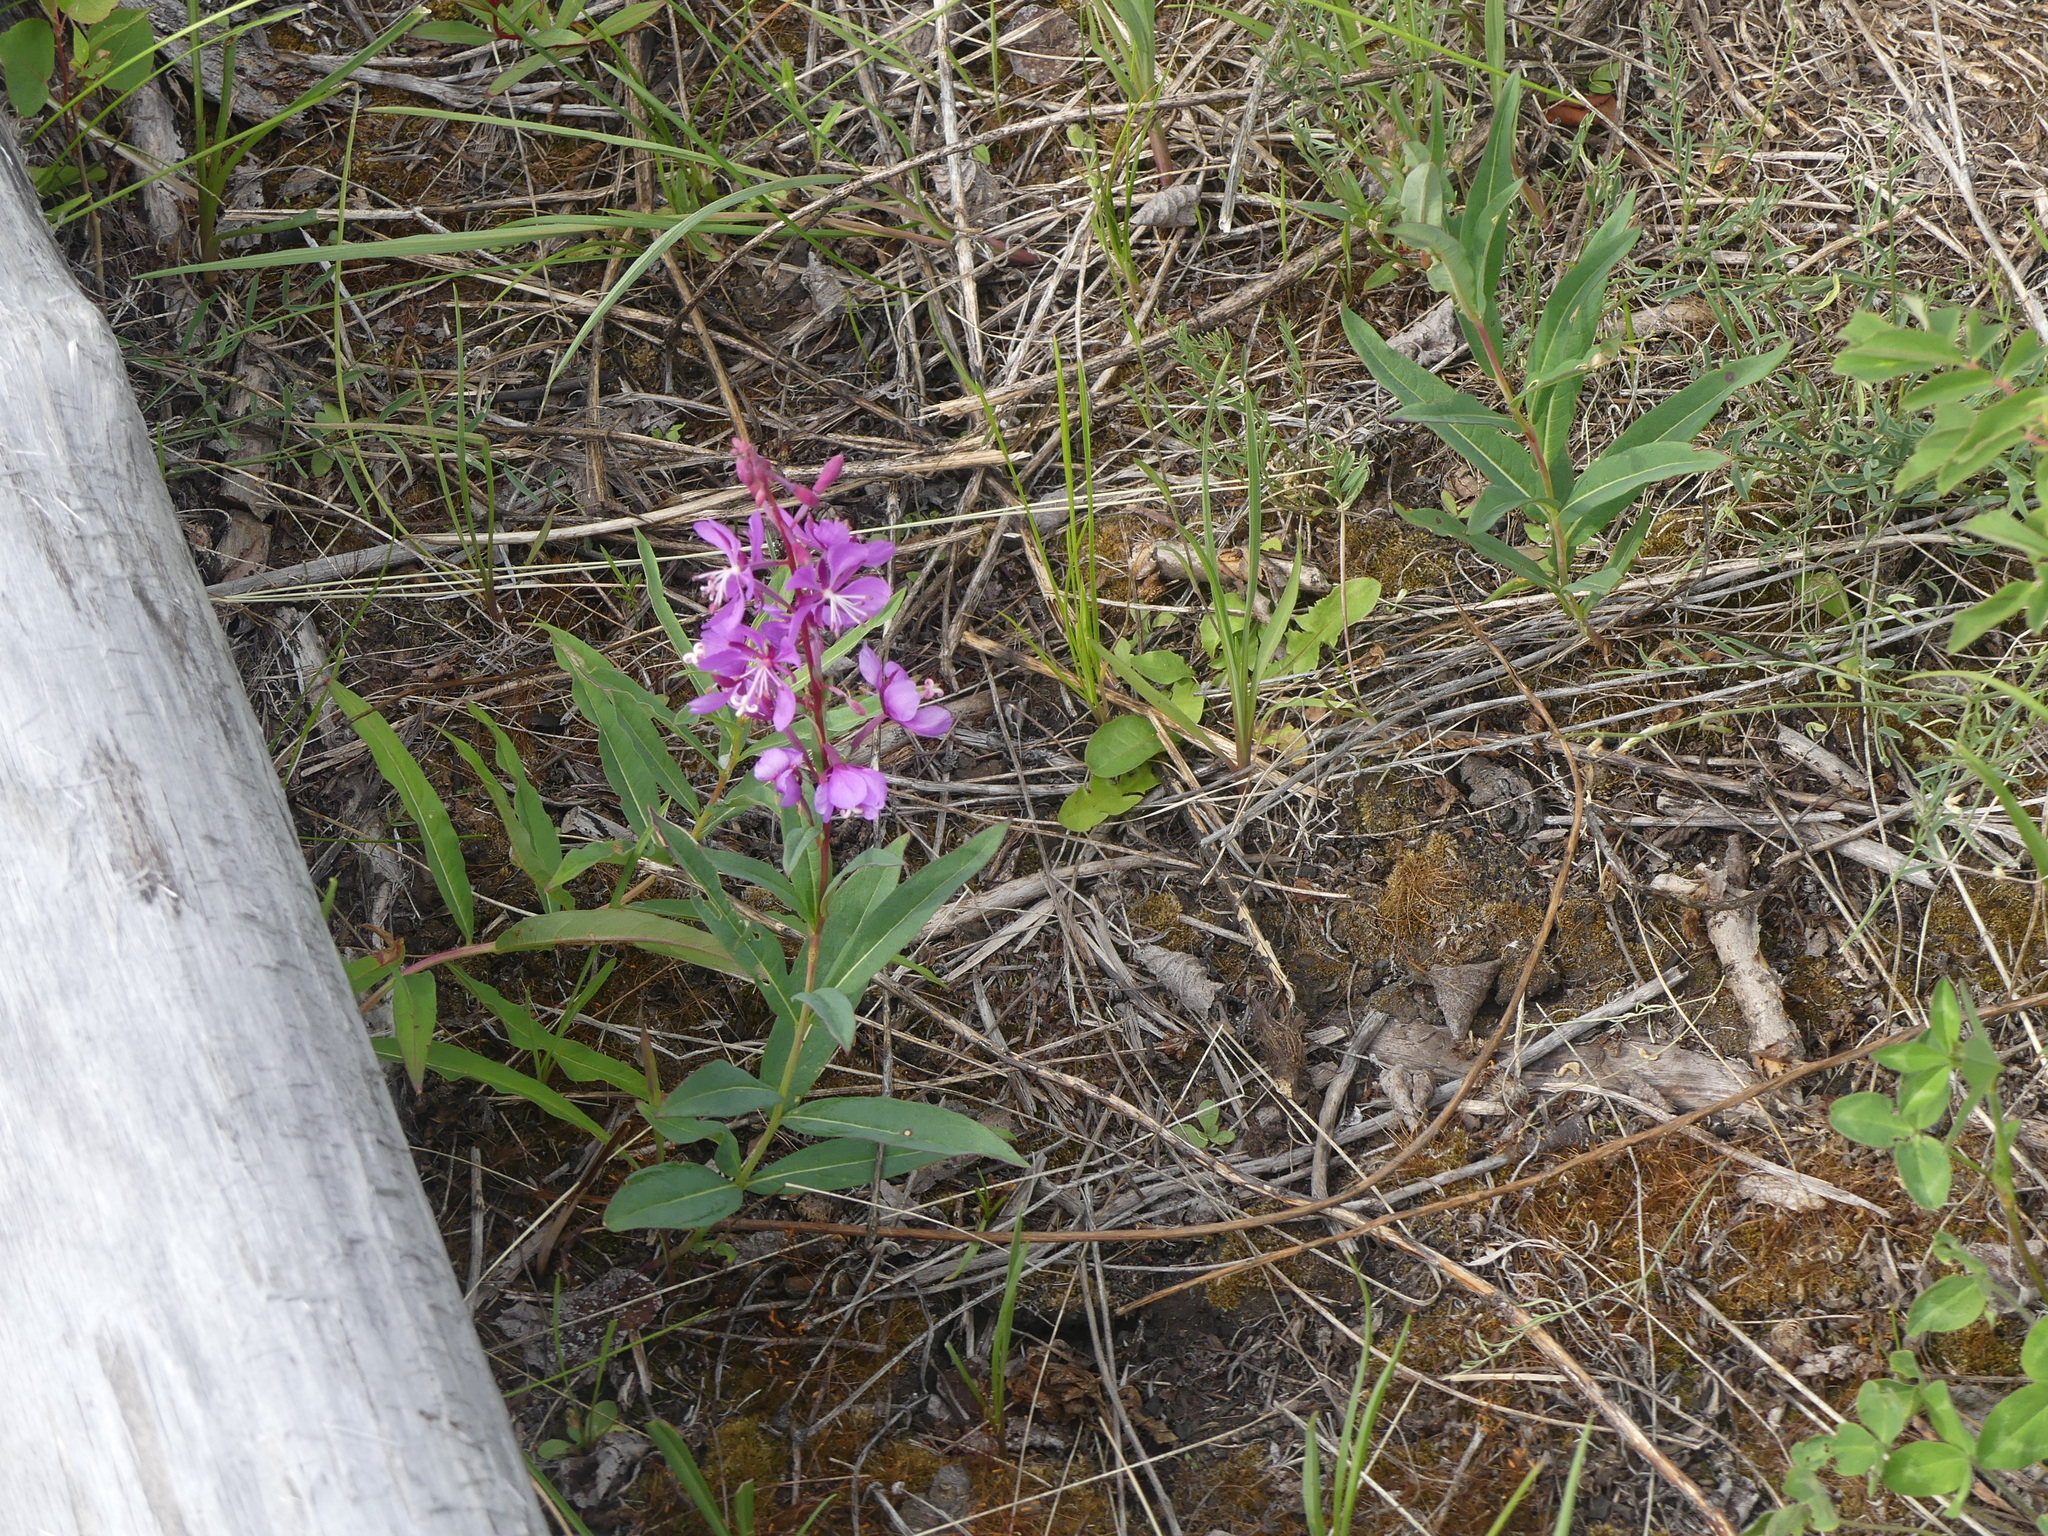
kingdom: Plantae
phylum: Tracheophyta
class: Magnoliopsida
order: Myrtales
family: Onagraceae
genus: Chamaenerion
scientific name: Chamaenerion angustifolium
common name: Fireweed
